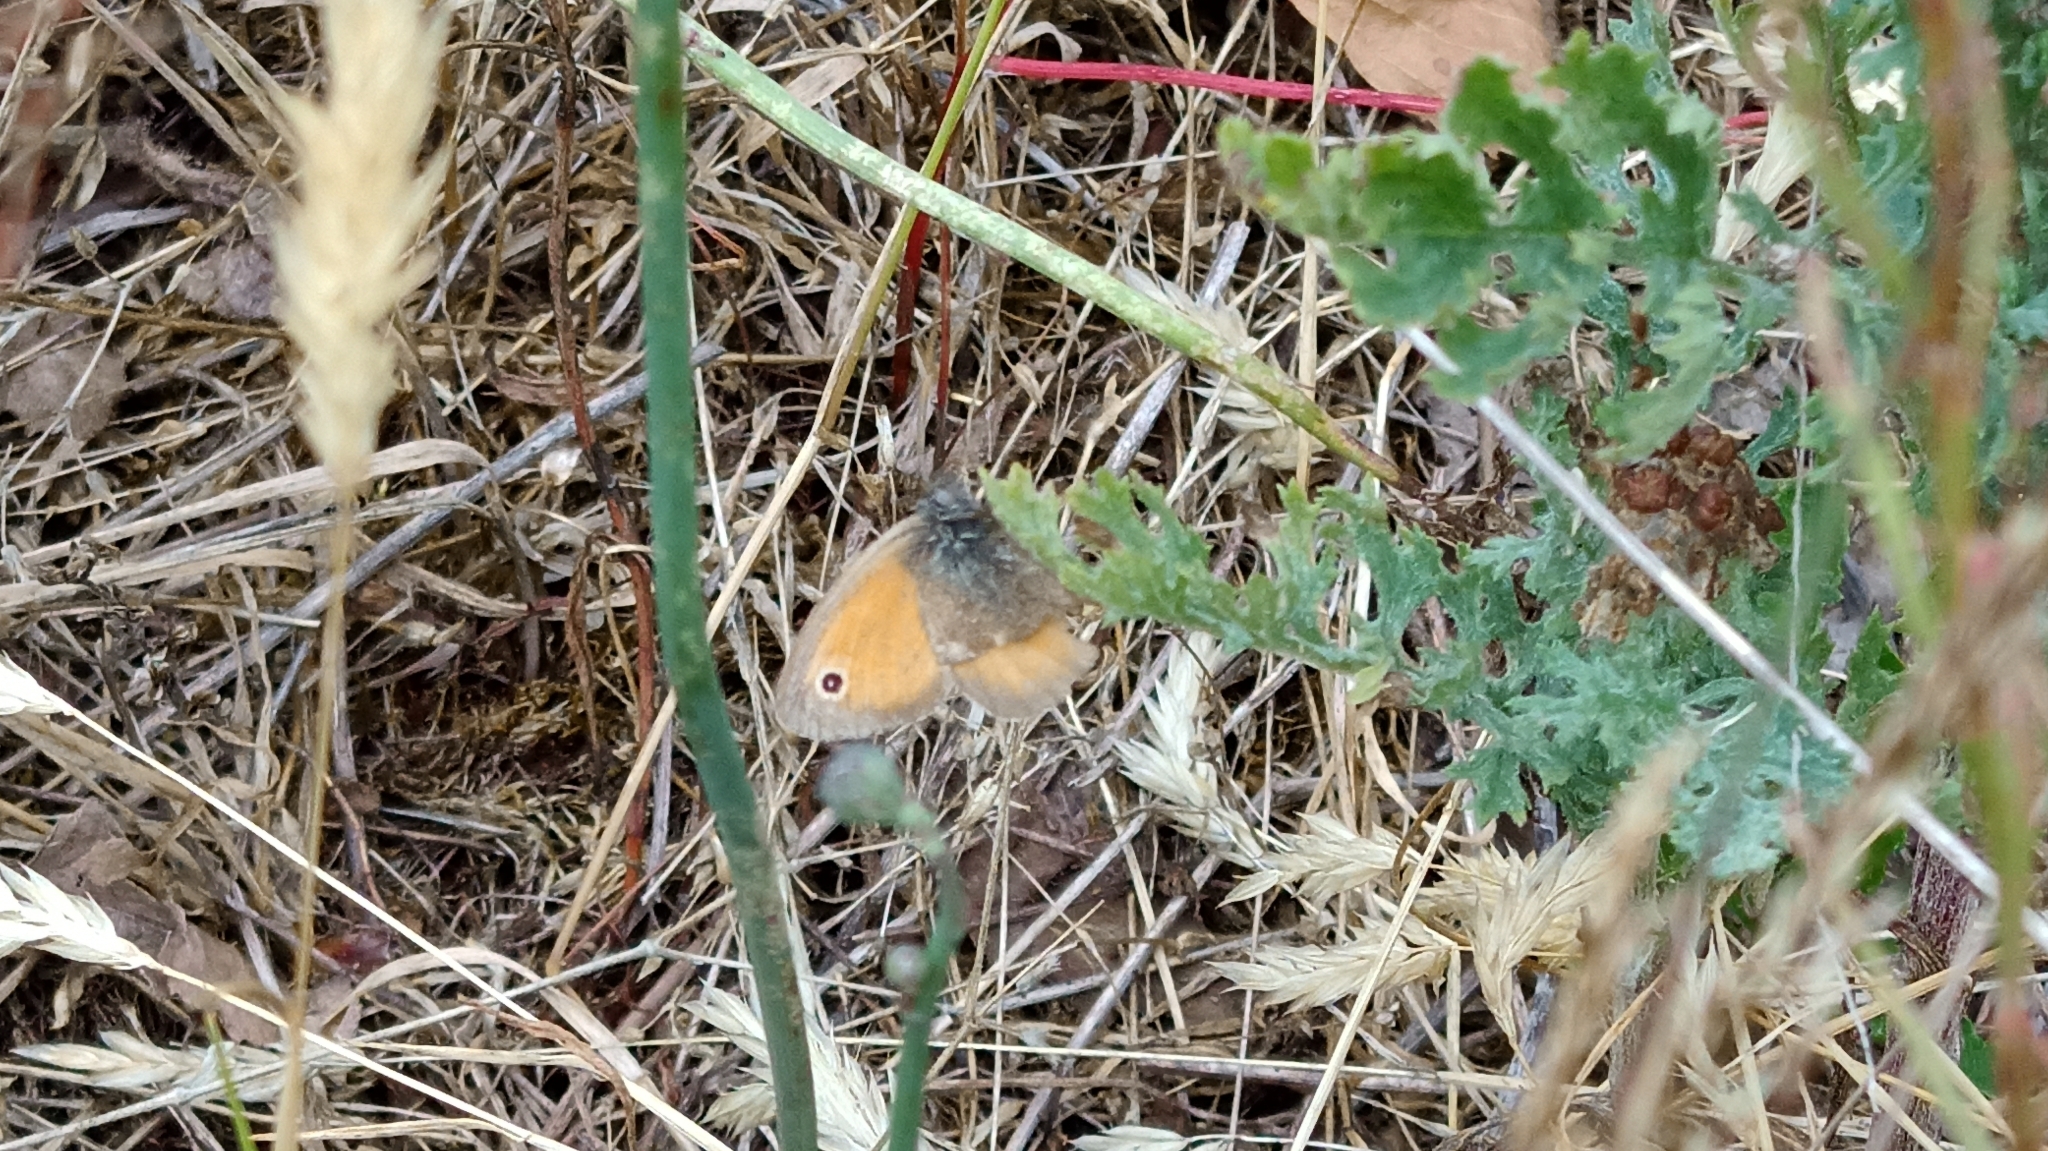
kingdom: Animalia
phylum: Arthropoda
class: Insecta
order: Lepidoptera
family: Nymphalidae
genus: Coenonympha
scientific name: Coenonympha pamphilus
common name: Small heath
